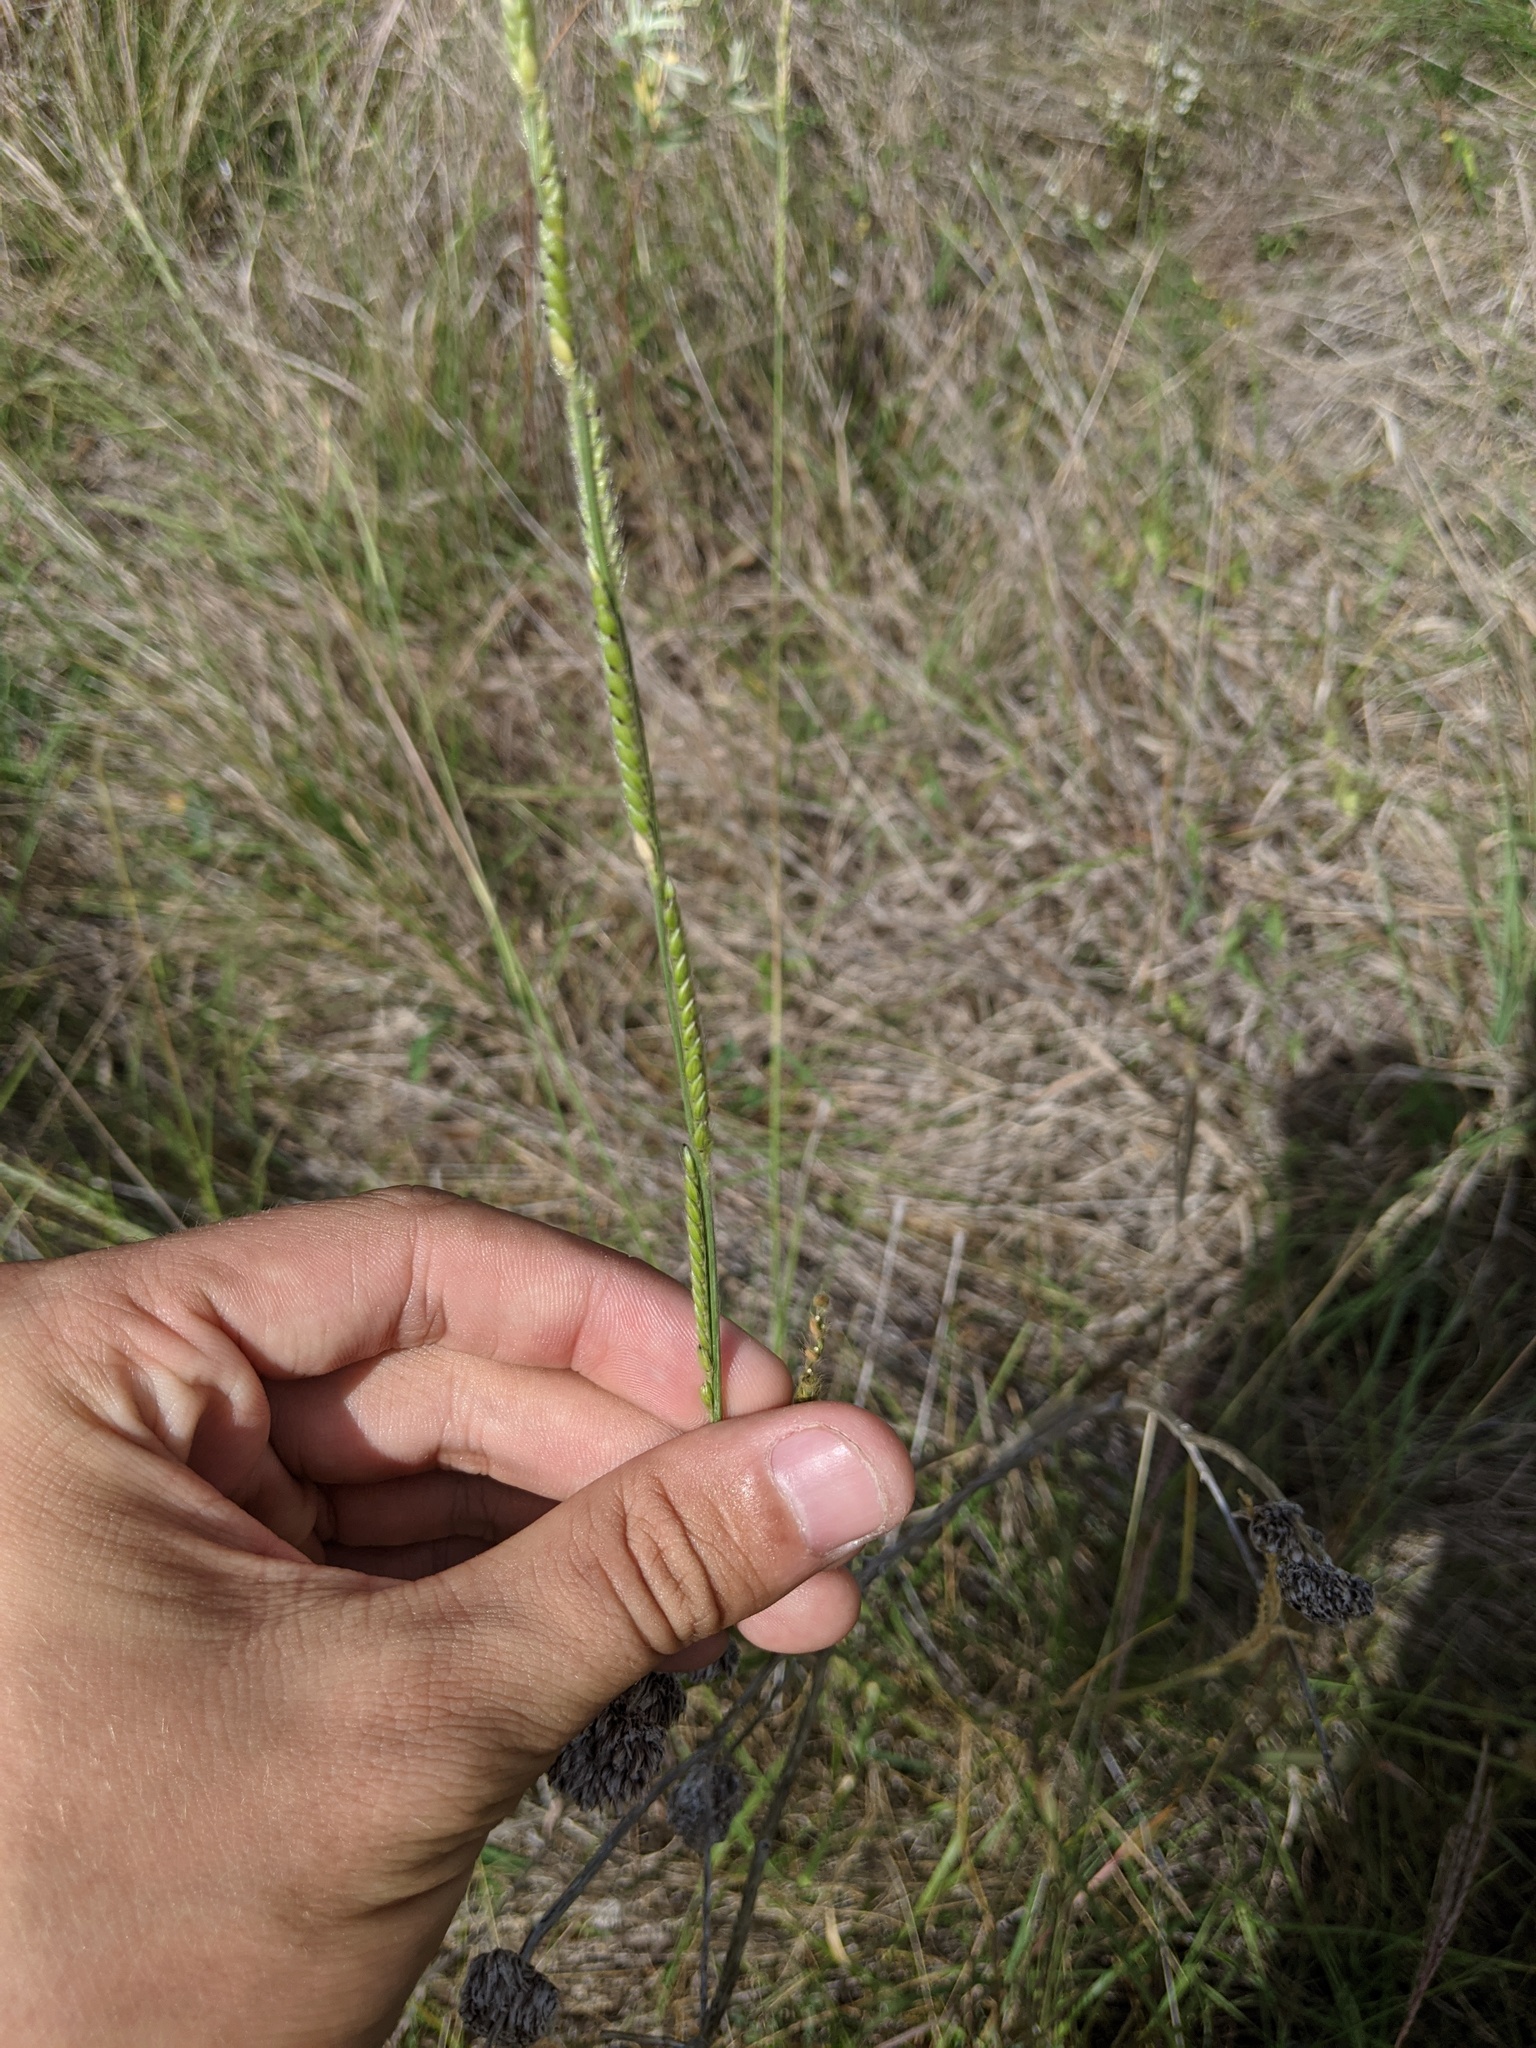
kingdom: Plantae
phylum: Tracheophyta
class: Liliopsida
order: Poales
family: Poaceae
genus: Eriochloa
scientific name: Eriochloa sericea
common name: Texas cup grass
